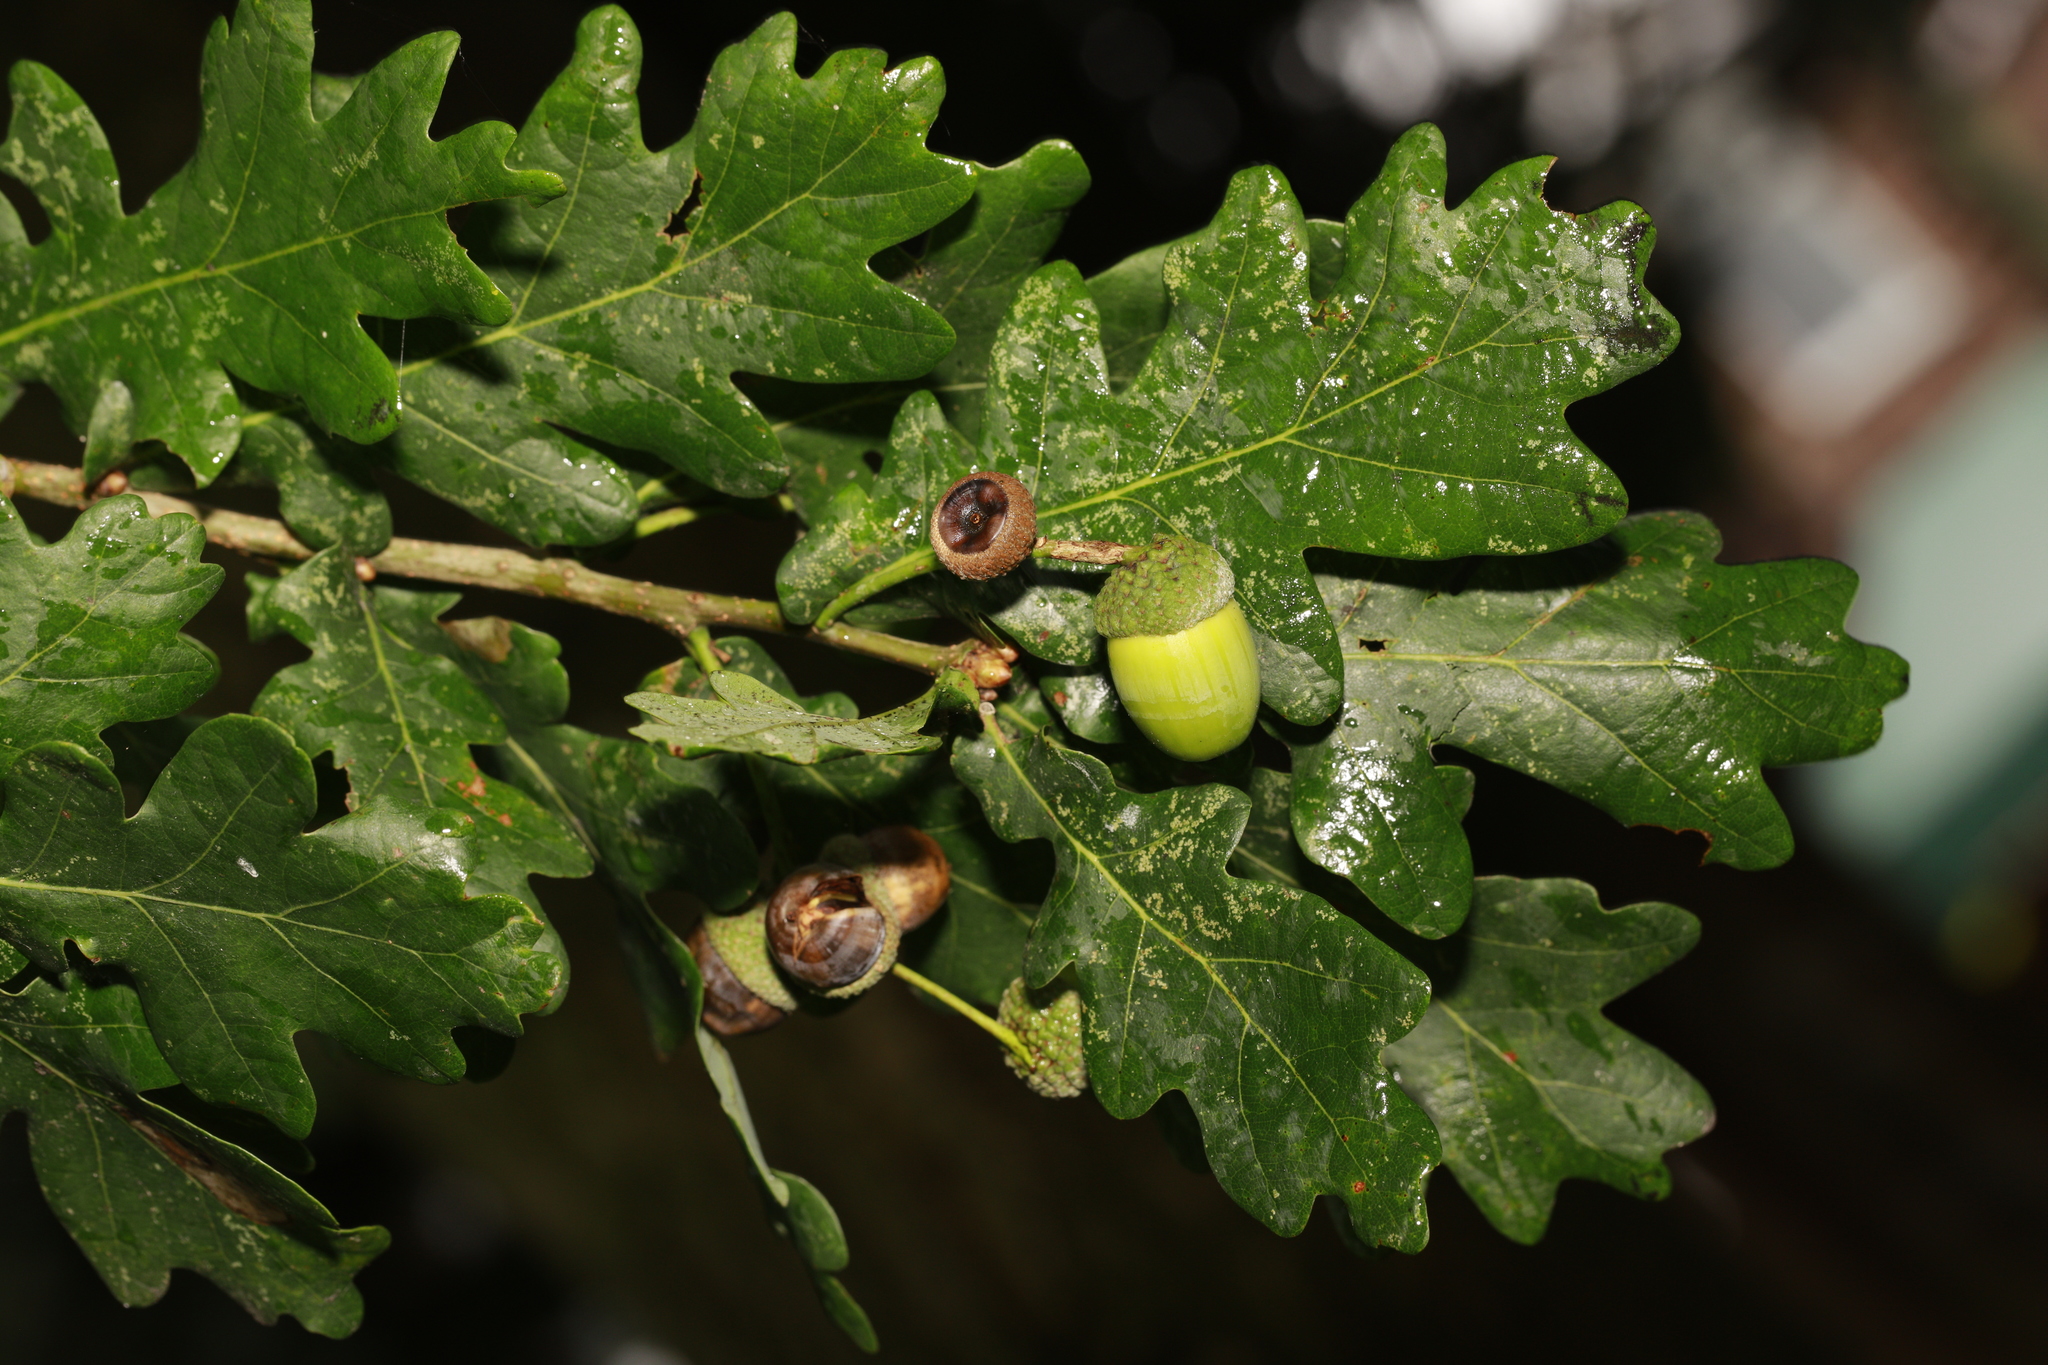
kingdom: Plantae
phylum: Tracheophyta
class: Magnoliopsida
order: Fagales
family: Fagaceae
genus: Quercus
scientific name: Quercus robur
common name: Pedunculate oak
